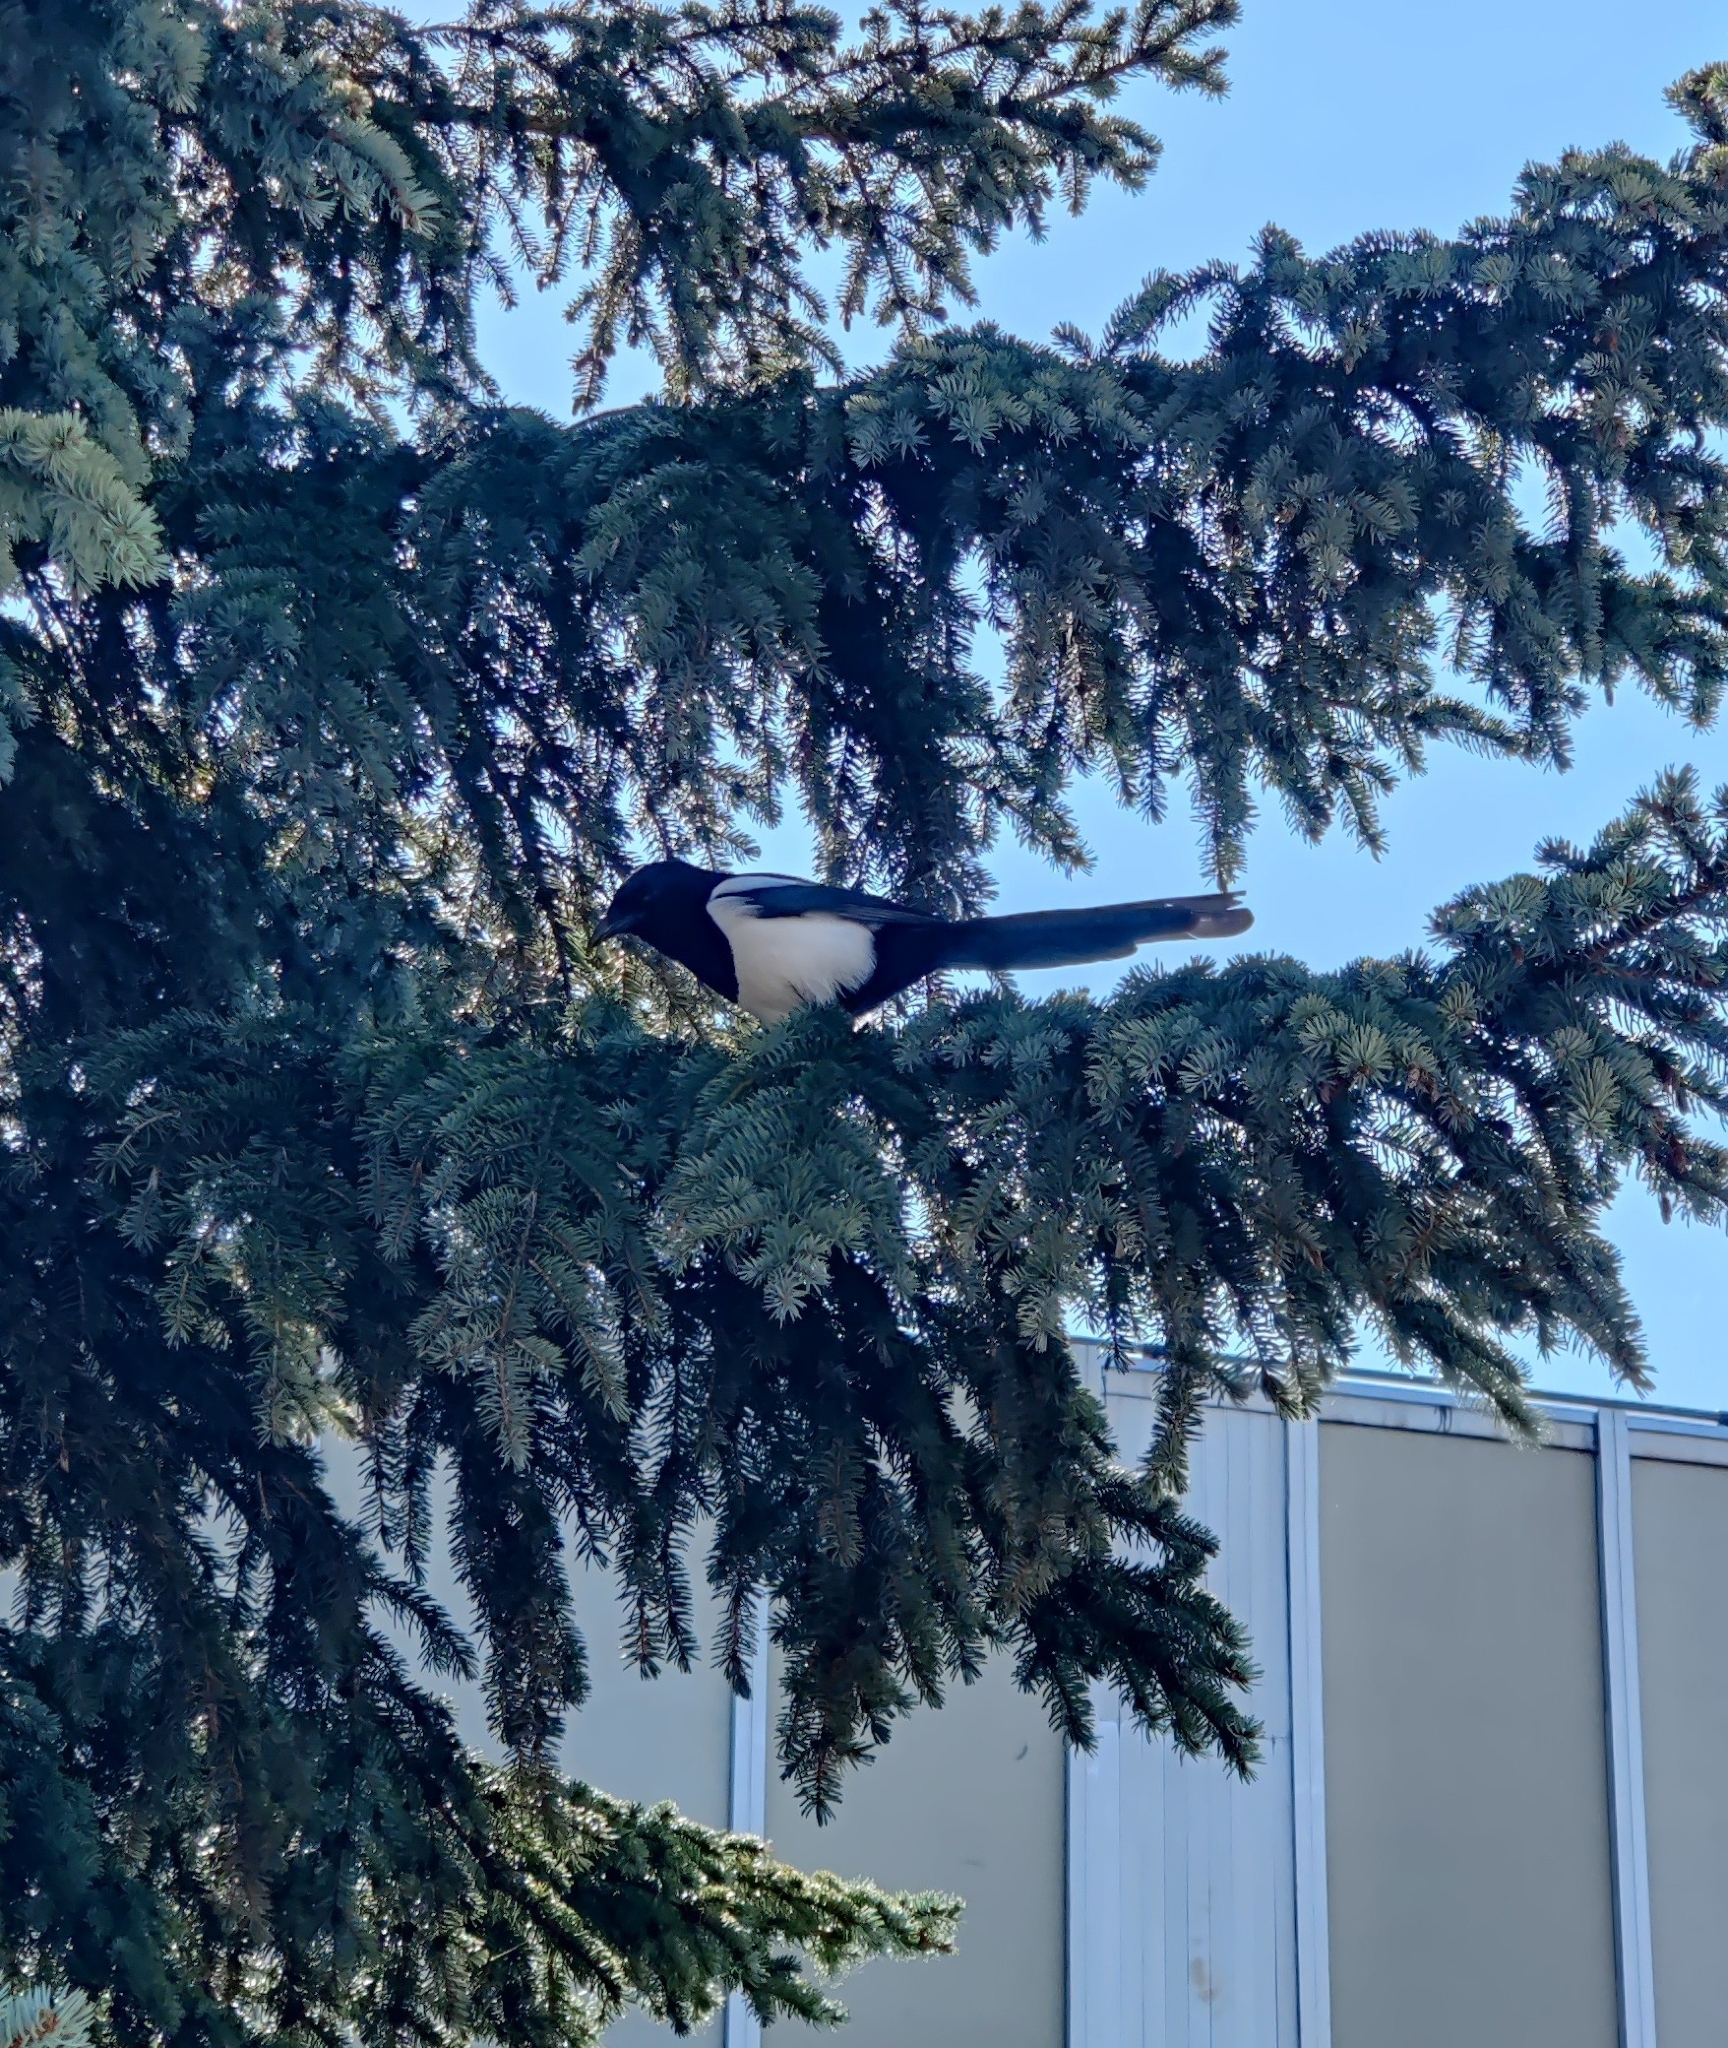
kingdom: Animalia
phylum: Chordata
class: Aves
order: Passeriformes
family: Corvidae
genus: Pica
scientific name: Pica pica
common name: Eurasian magpie
